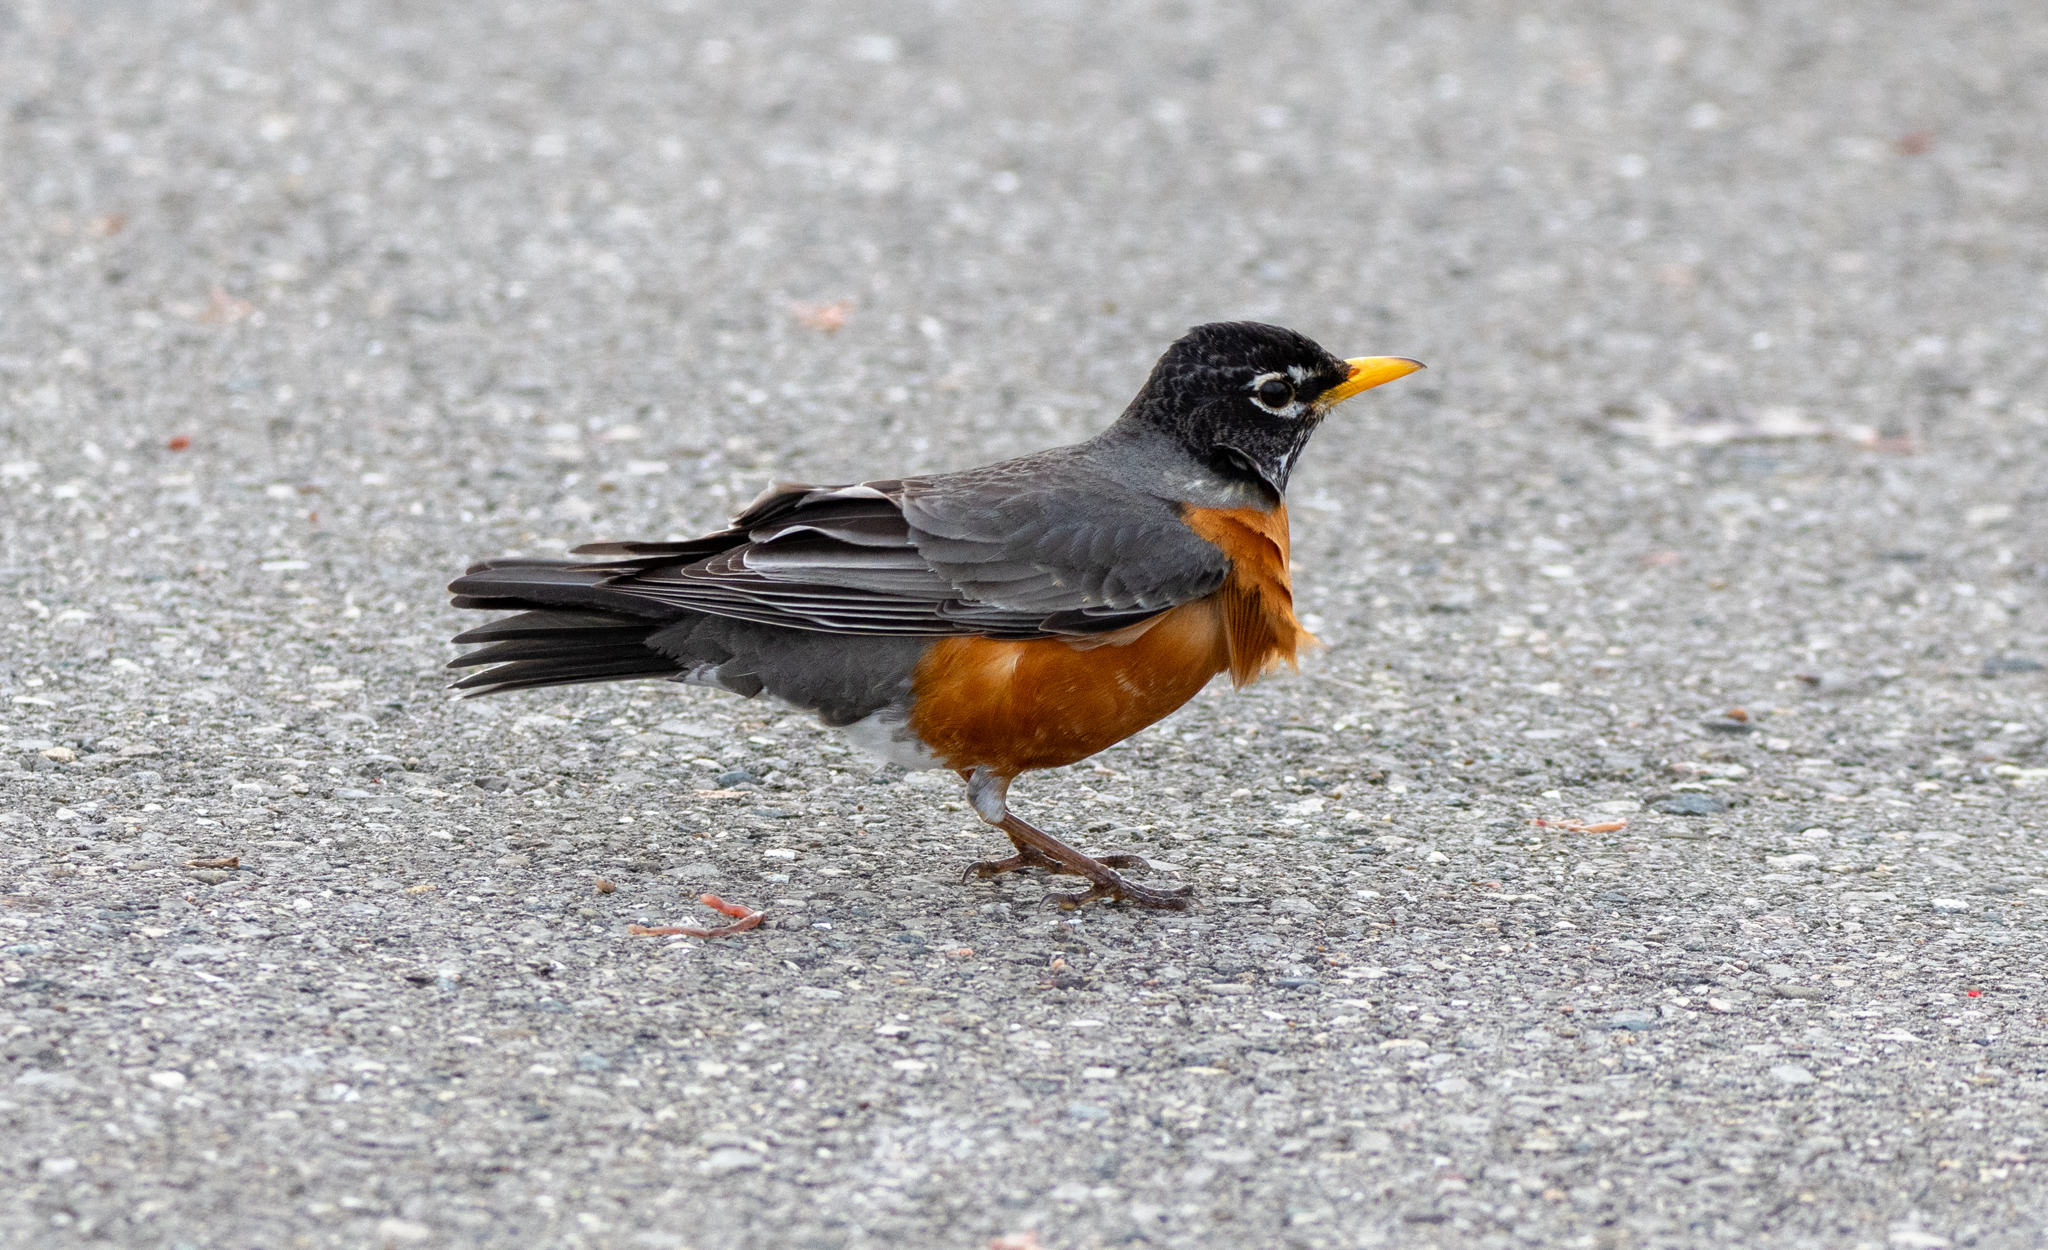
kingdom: Animalia
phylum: Chordata
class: Aves
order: Passeriformes
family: Turdidae
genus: Turdus
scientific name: Turdus migratorius
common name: American robin
